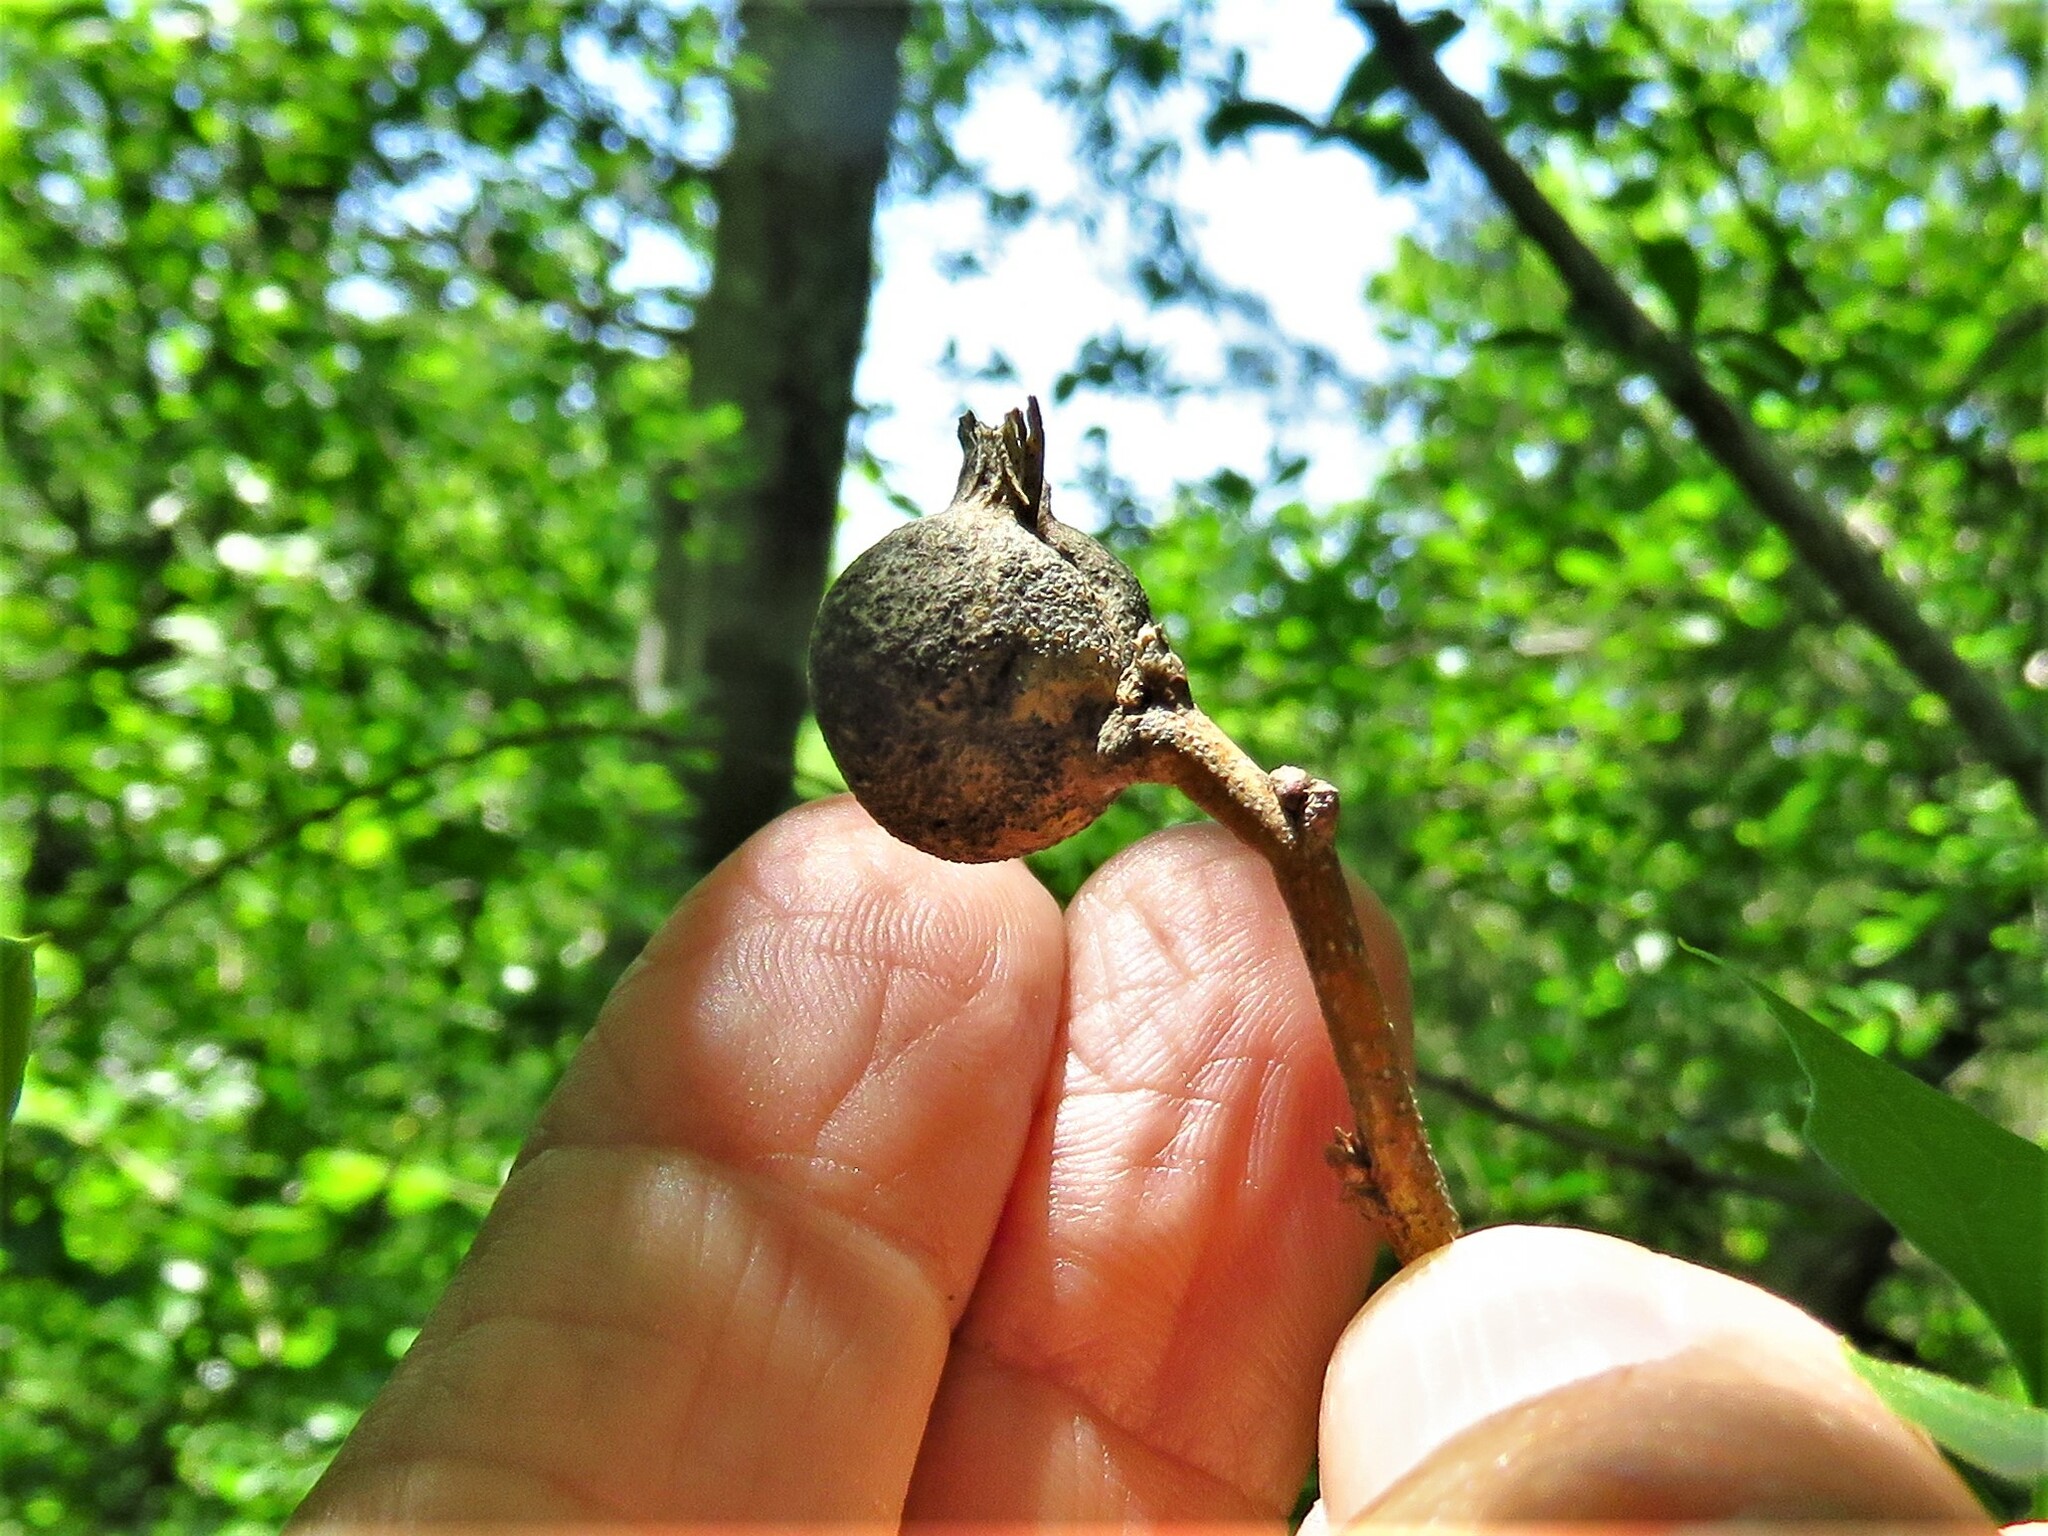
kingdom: Animalia
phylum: Arthropoda
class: Insecta
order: Hemiptera
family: Aphalaridae
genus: Pachypsylla
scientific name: Pachypsylla venusta
